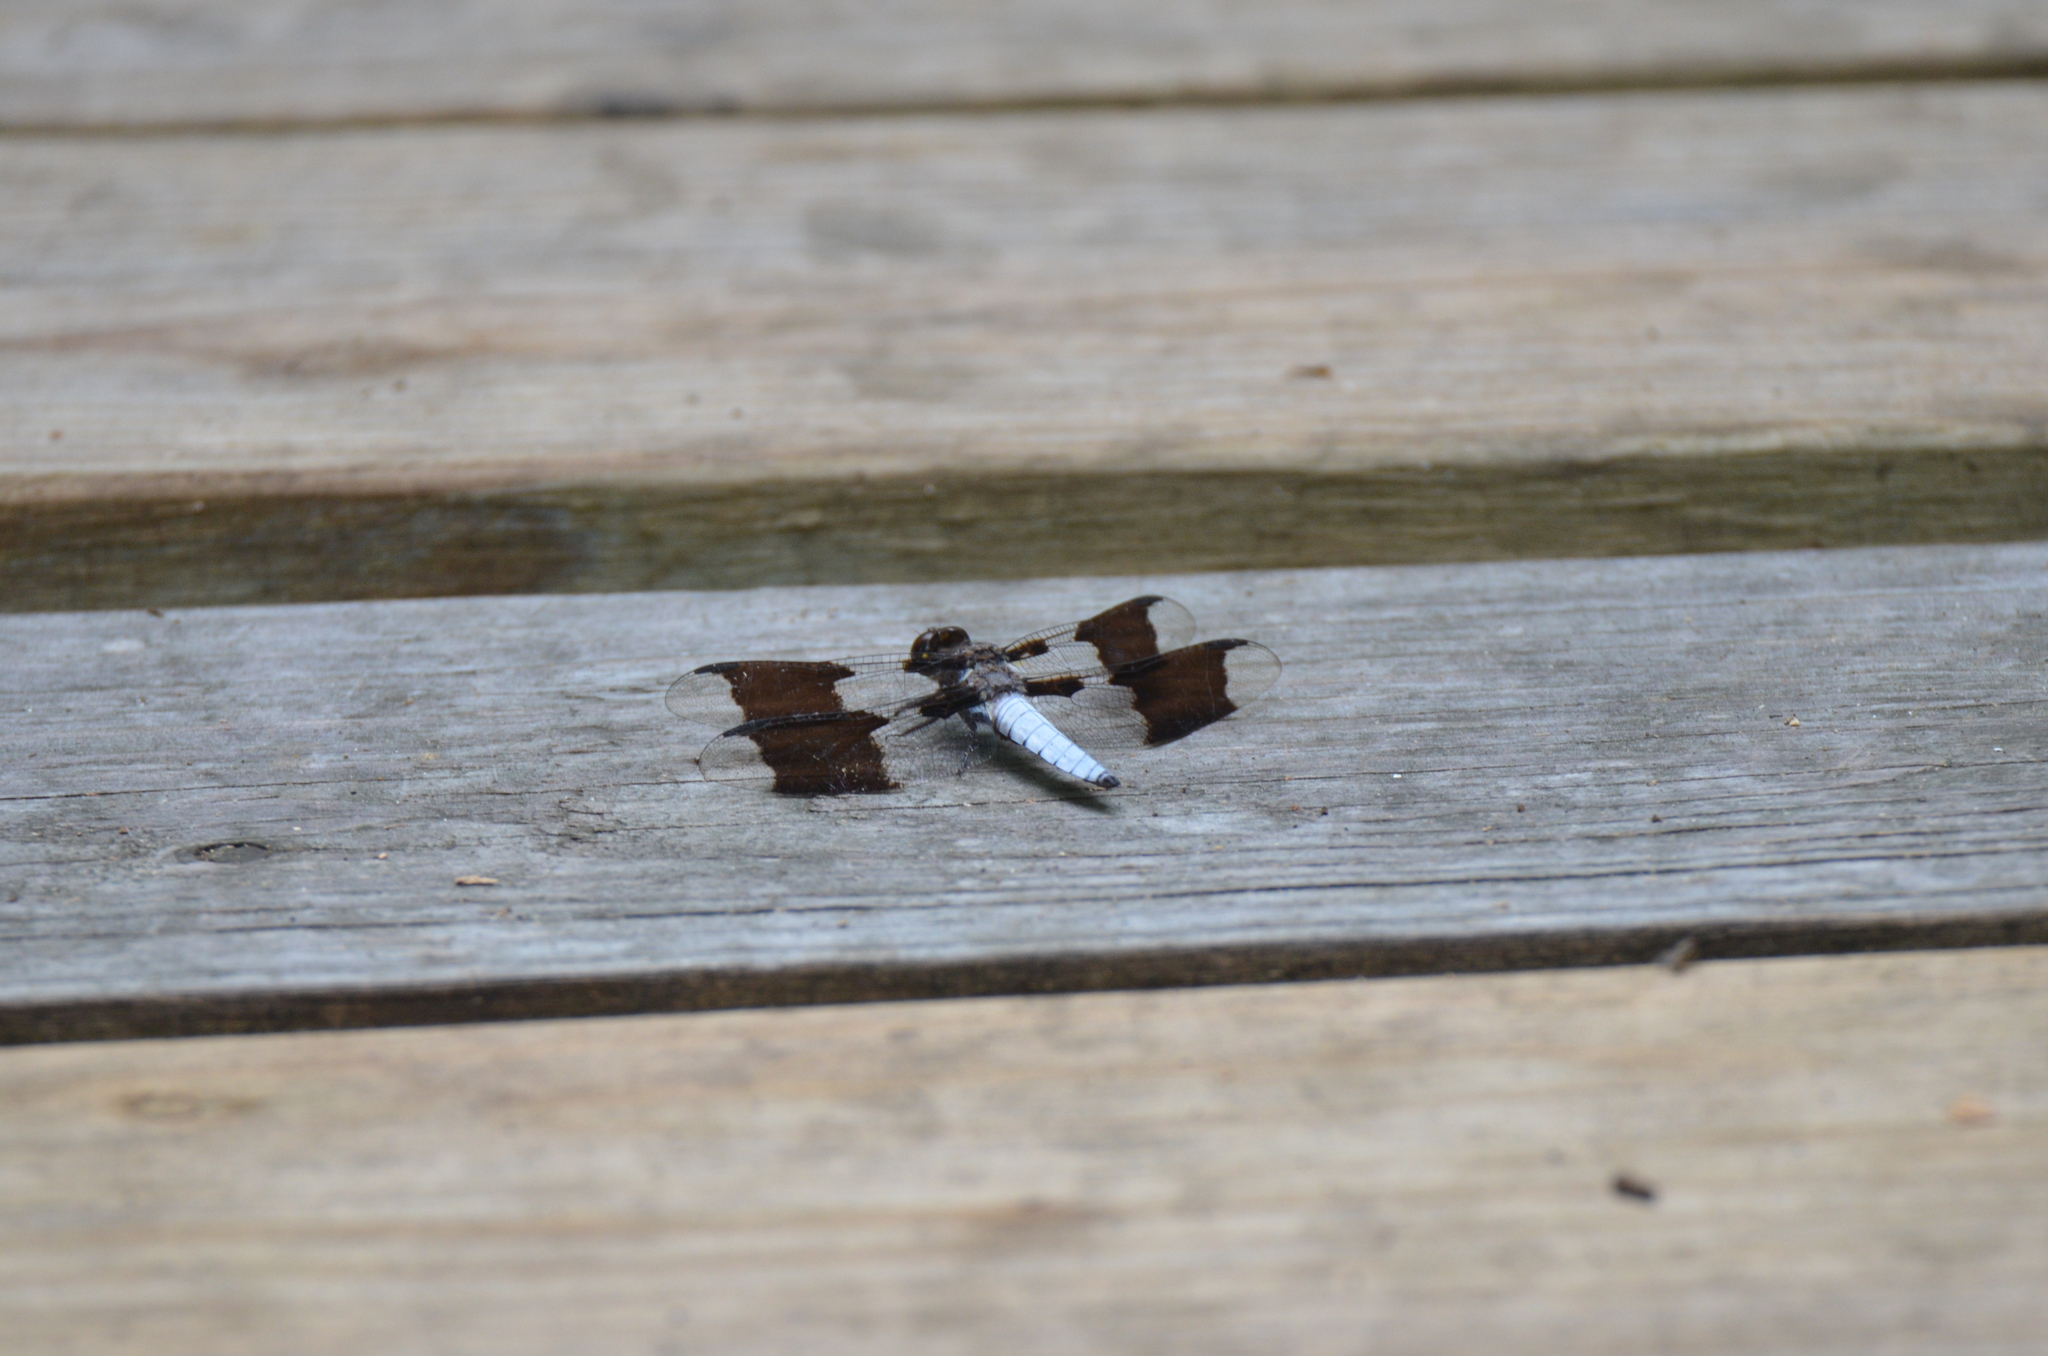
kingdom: Animalia
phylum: Arthropoda
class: Insecta
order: Odonata
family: Libellulidae
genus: Plathemis
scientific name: Plathemis lydia
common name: Common whitetail
